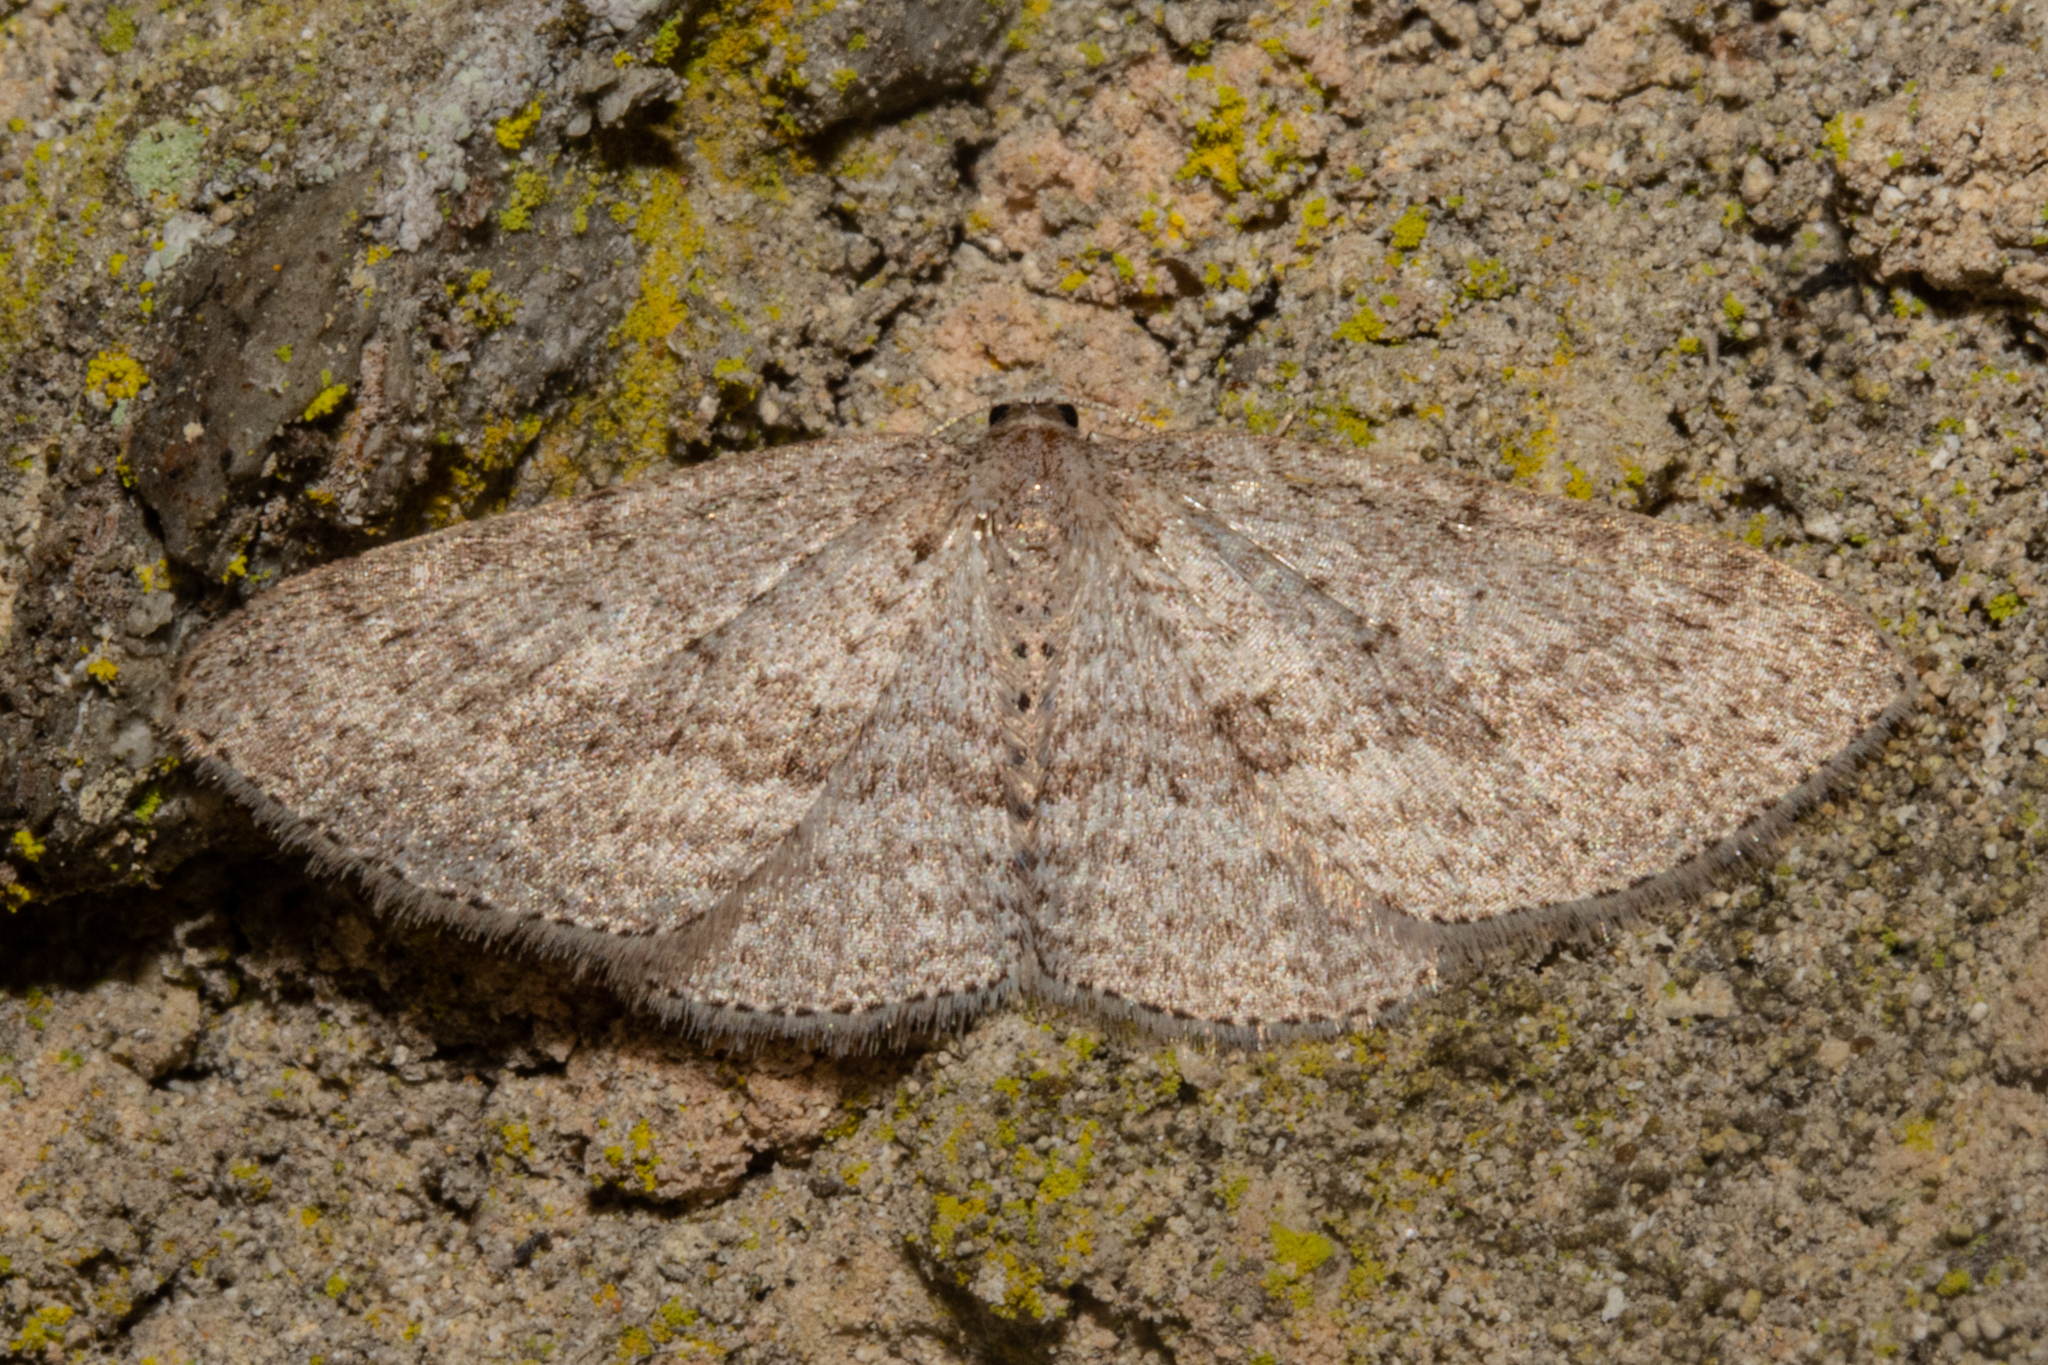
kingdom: Animalia
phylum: Arthropoda
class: Insecta
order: Lepidoptera
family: Geometridae
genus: Poecilasthena
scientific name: Poecilasthena schistaria
